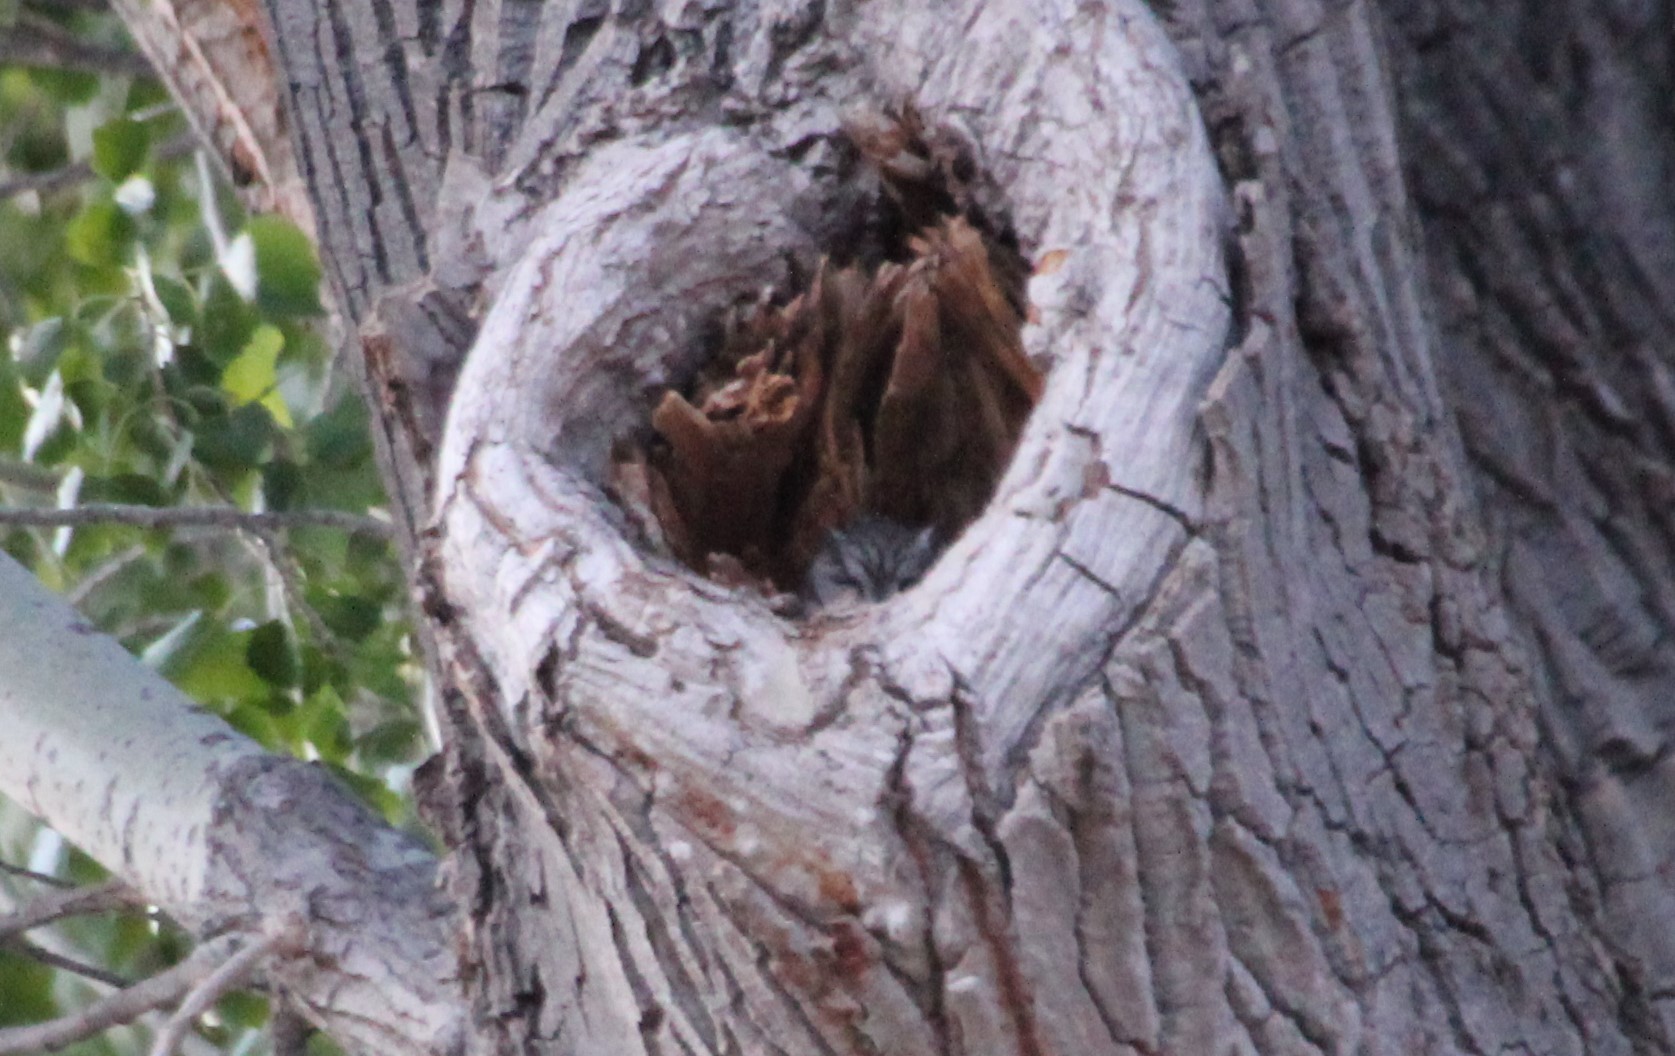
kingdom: Animalia
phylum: Chordata
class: Aves
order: Strigiformes
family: Strigidae
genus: Megascops
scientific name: Megascops kennicottii
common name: Western screech-owl
